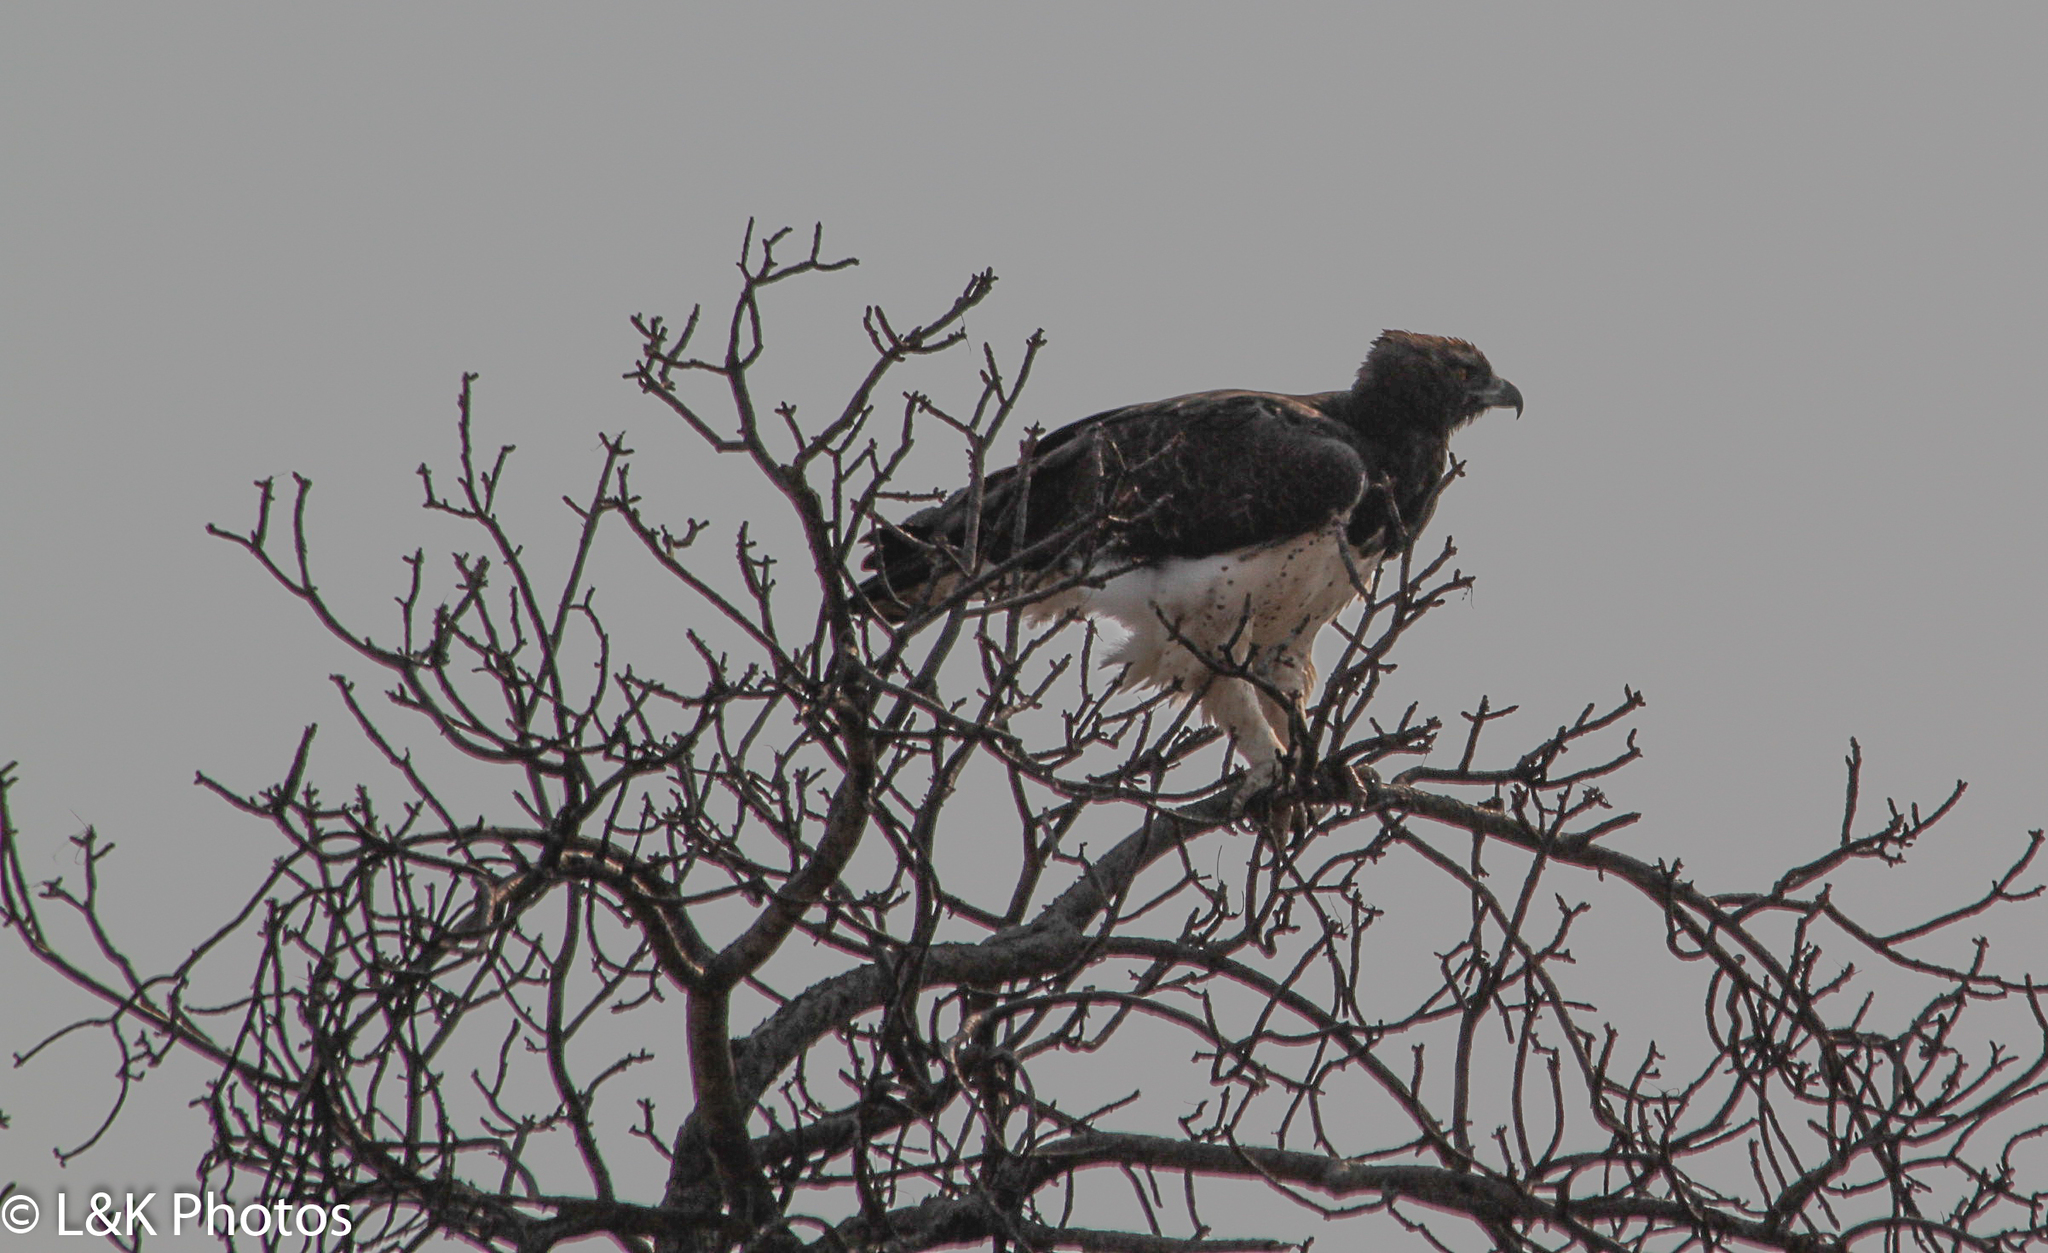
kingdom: Animalia
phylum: Chordata
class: Aves
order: Accipitriformes
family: Accipitridae
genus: Polemaetus
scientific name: Polemaetus bellicosus
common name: Martial eagle
